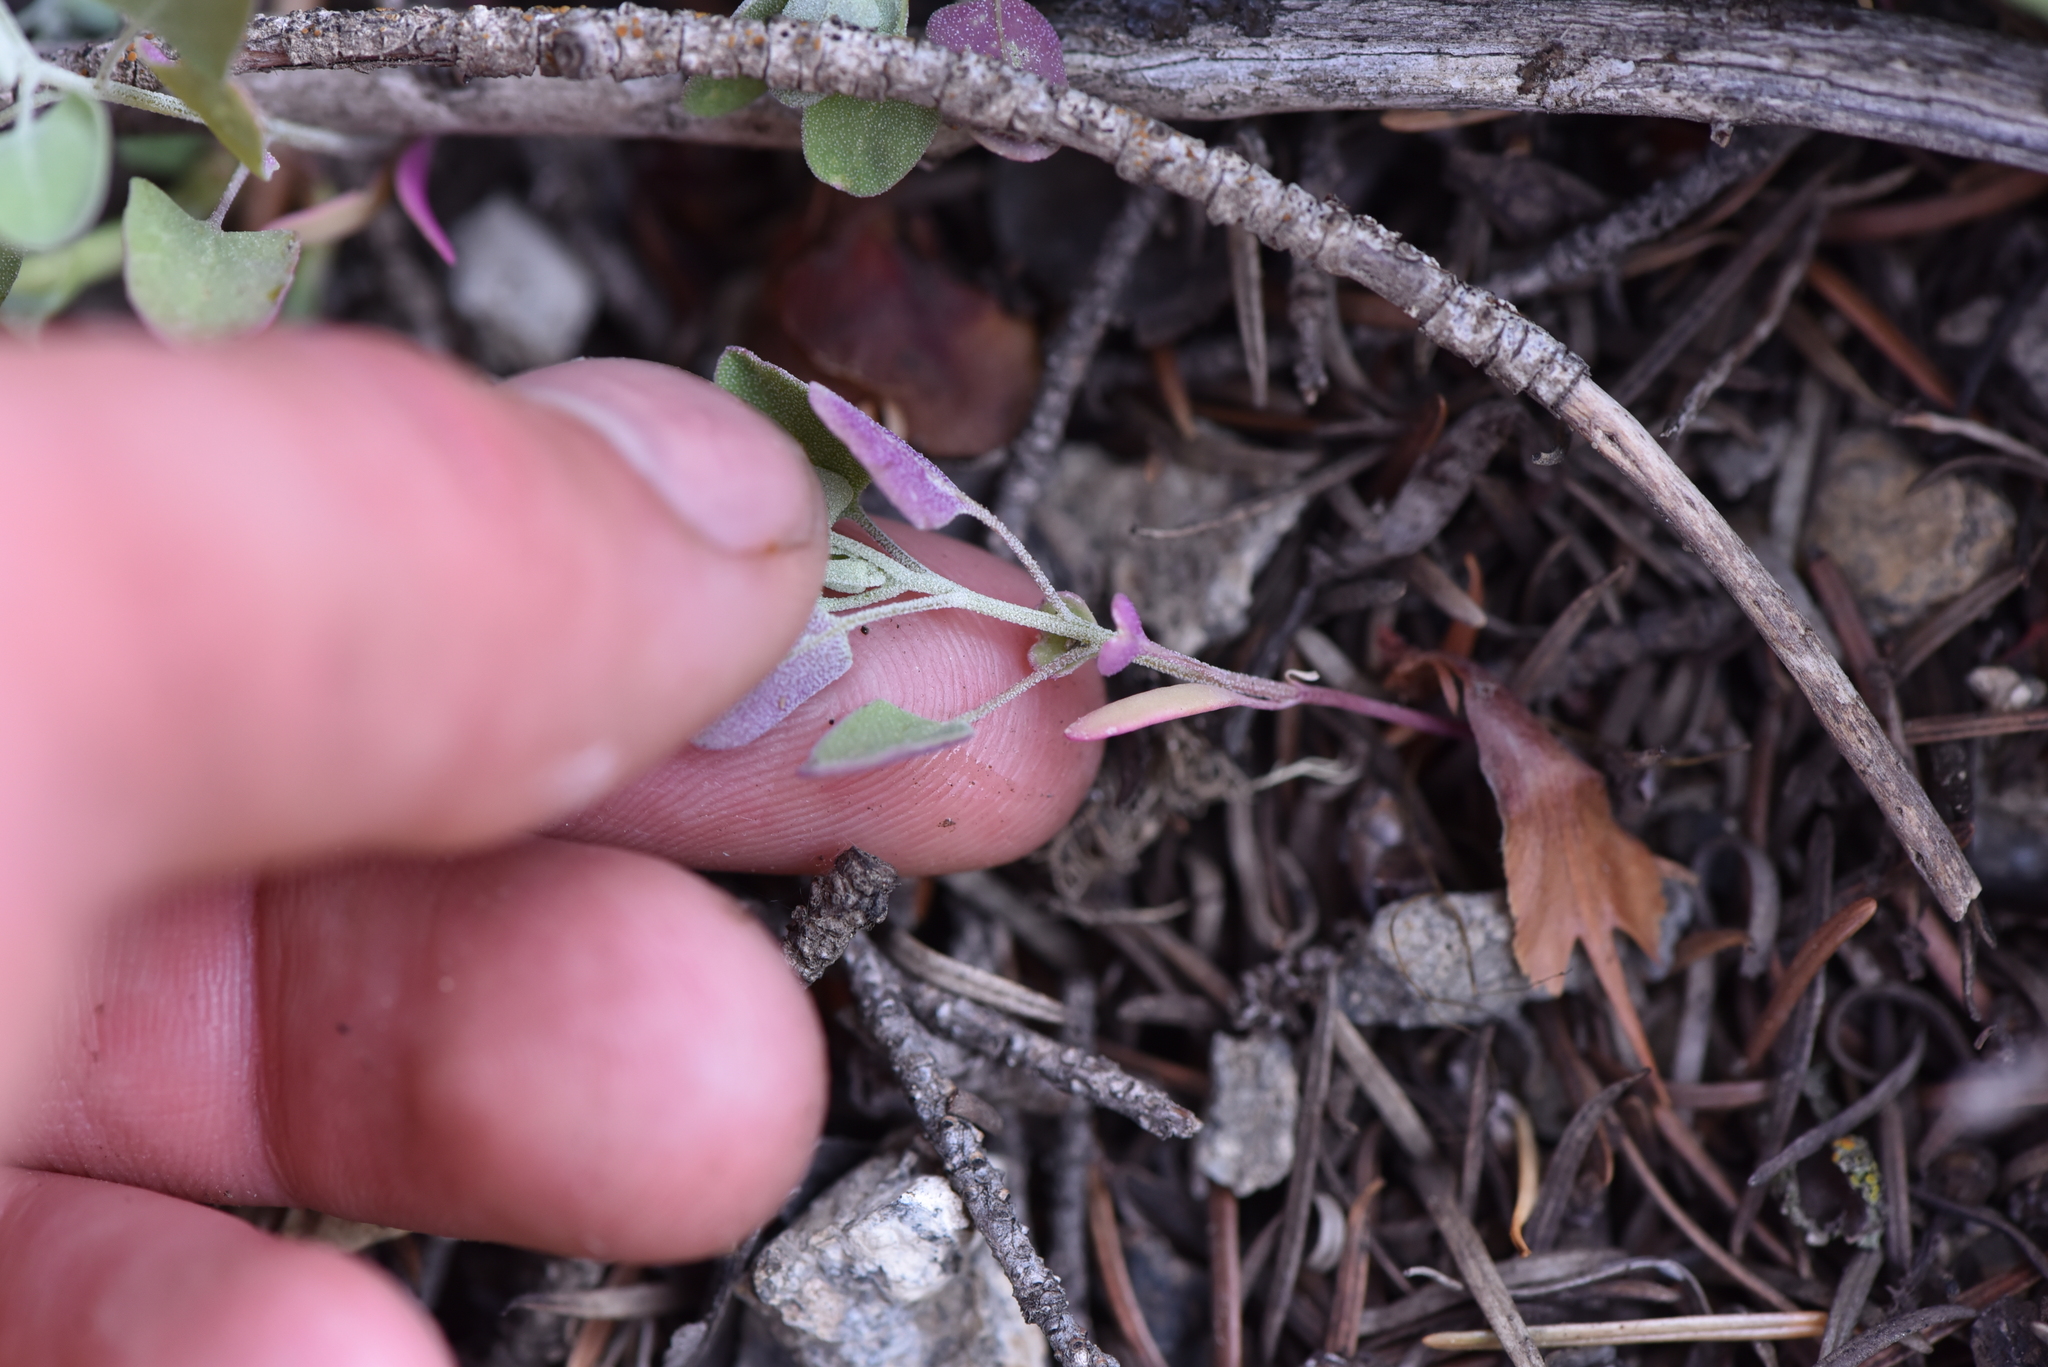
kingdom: Plantae
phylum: Tracheophyta
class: Magnoliopsida
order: Caryophyllales
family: Amaranthaceae
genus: Chenopodium
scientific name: Chenopodium fremontii
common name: Fremont's goosefoot
